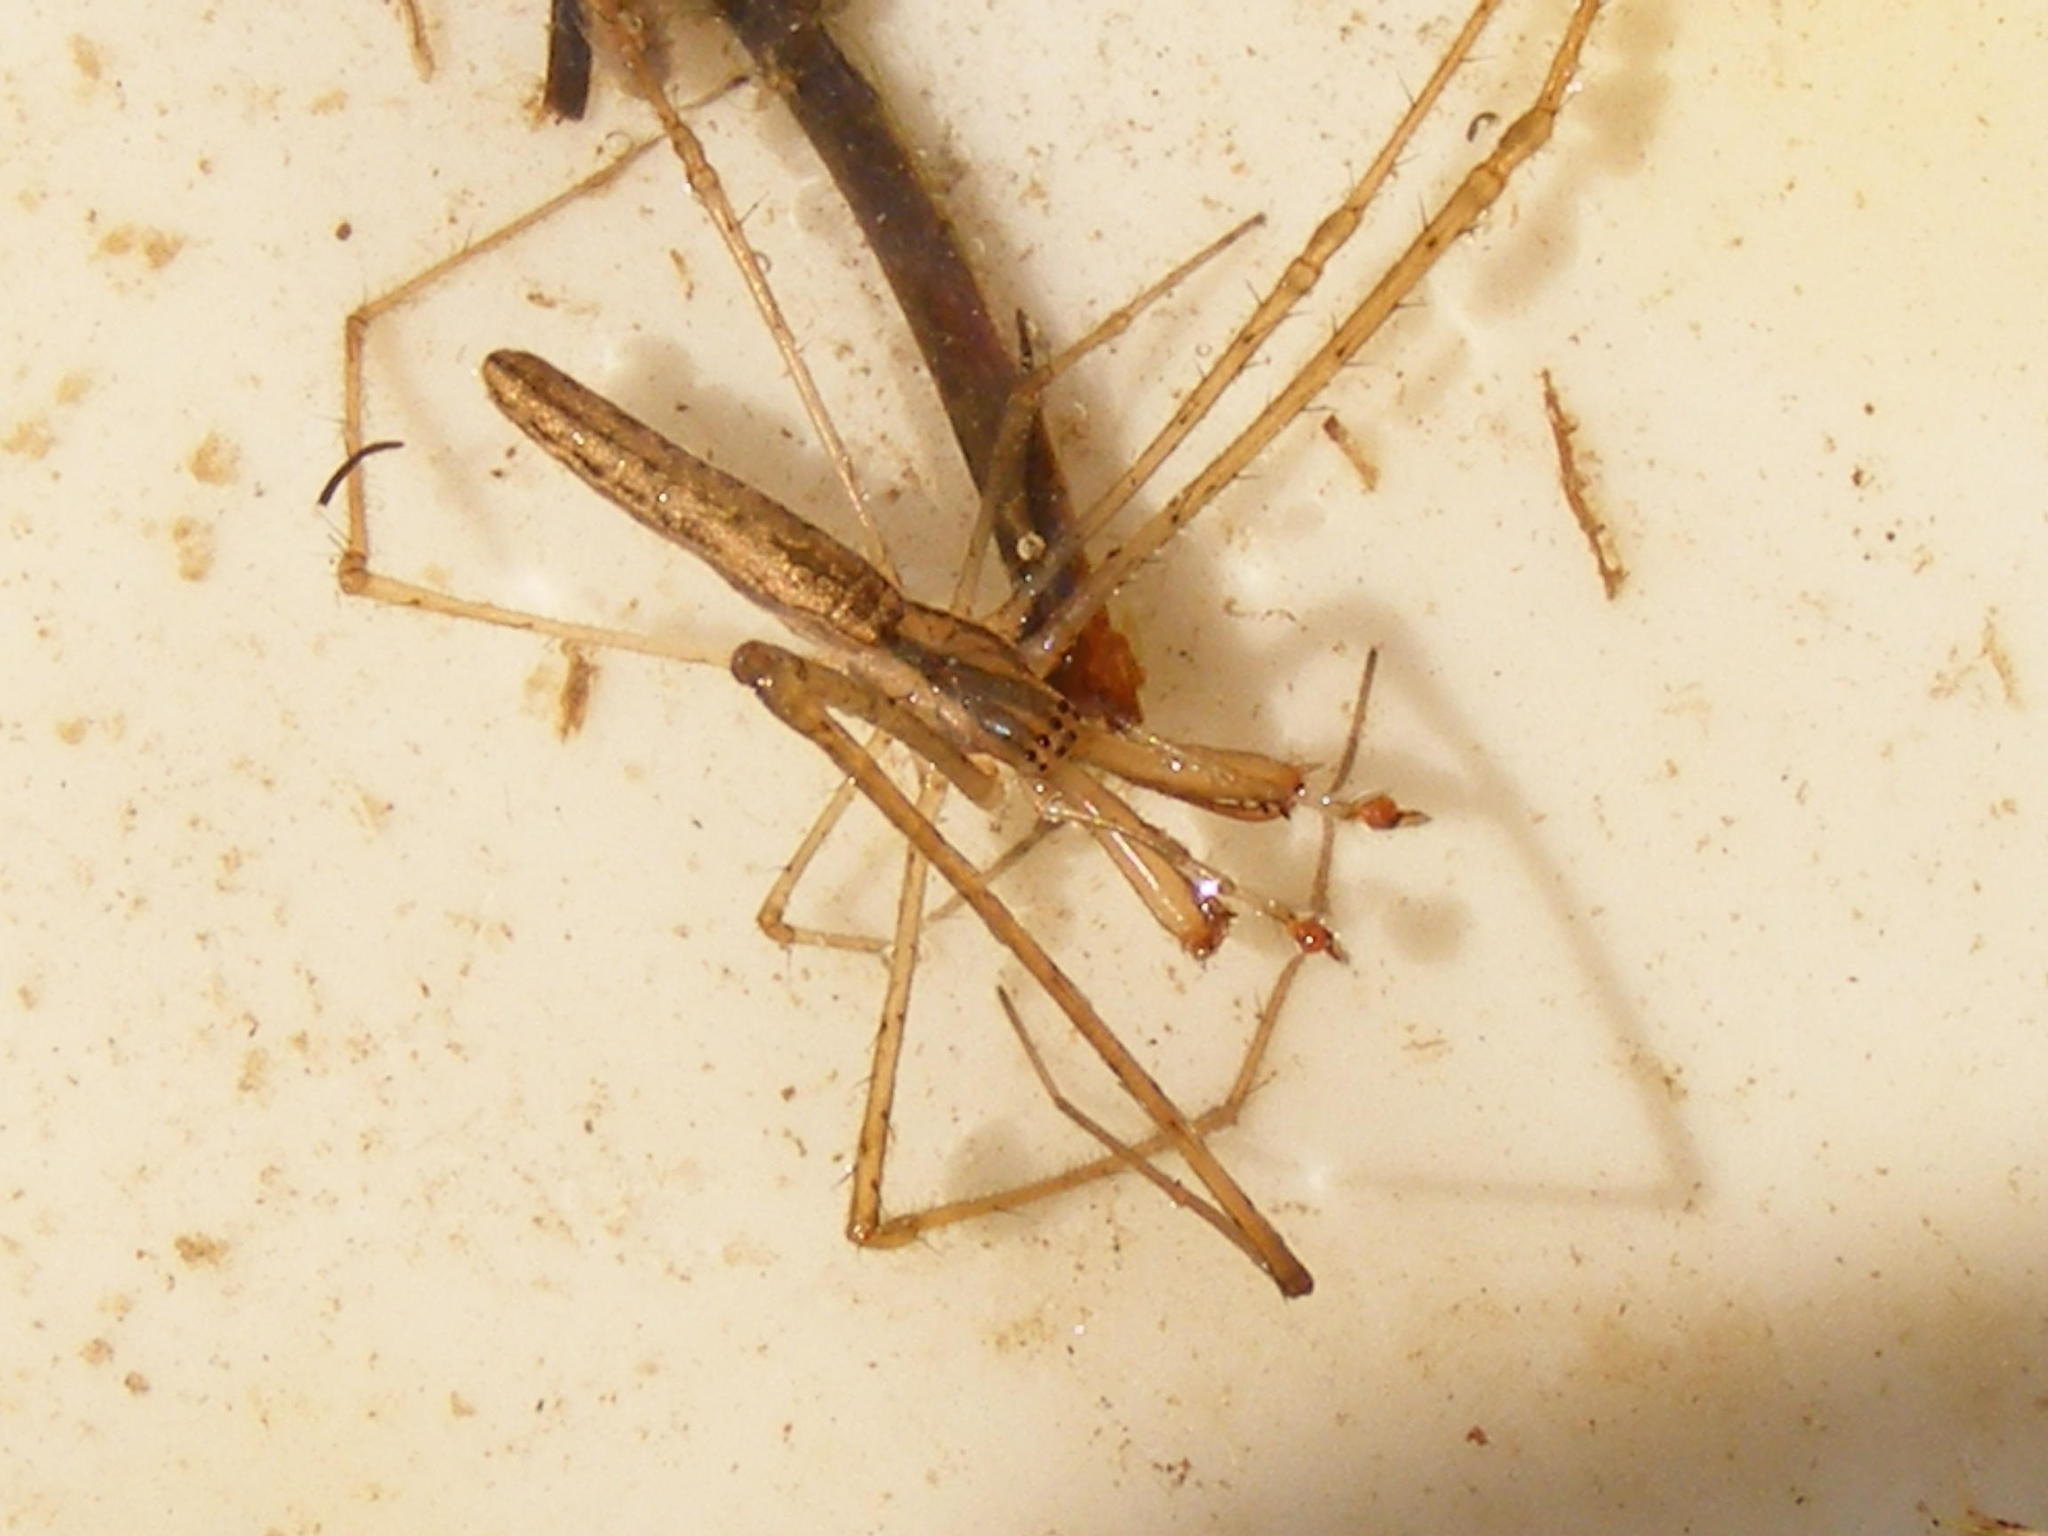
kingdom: Animalia
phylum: Arthropoda
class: Arachnida
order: Araneae
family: Tetragnathidae
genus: Tetragnatha
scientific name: Tetragnatha bogotensis
